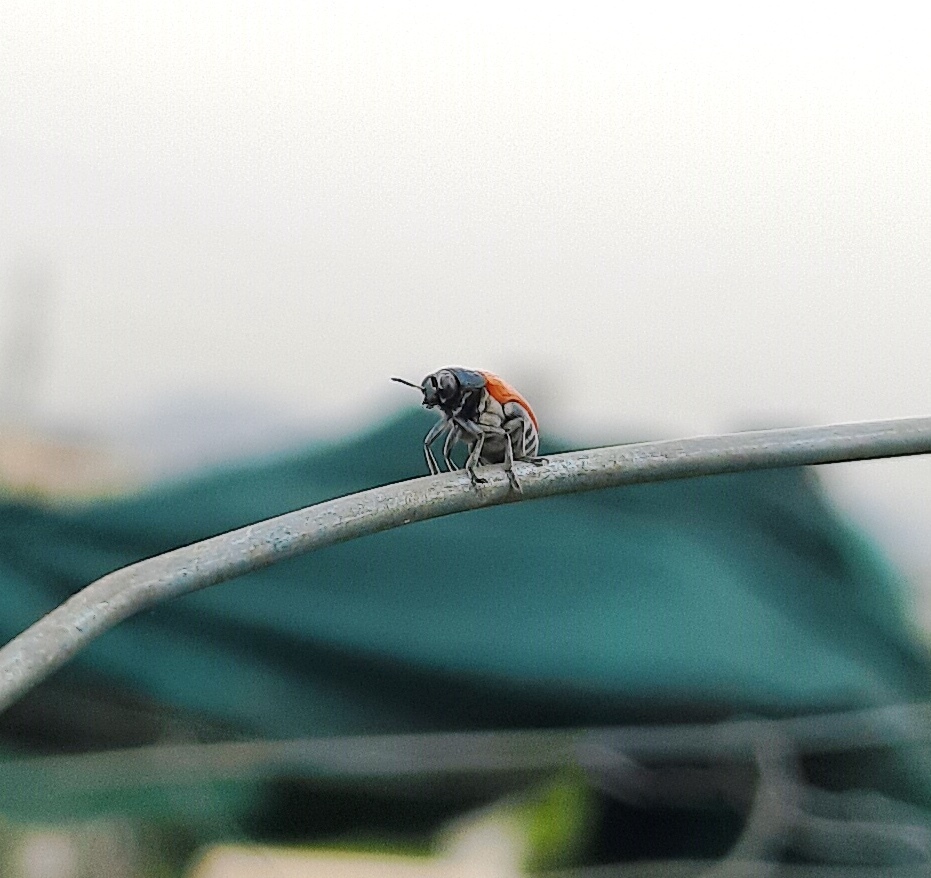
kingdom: Animalia
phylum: Arthropoda
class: Insecta
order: Coleoptera
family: Chrysomelidae
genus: Aspidolopha
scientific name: Aspidolopha
